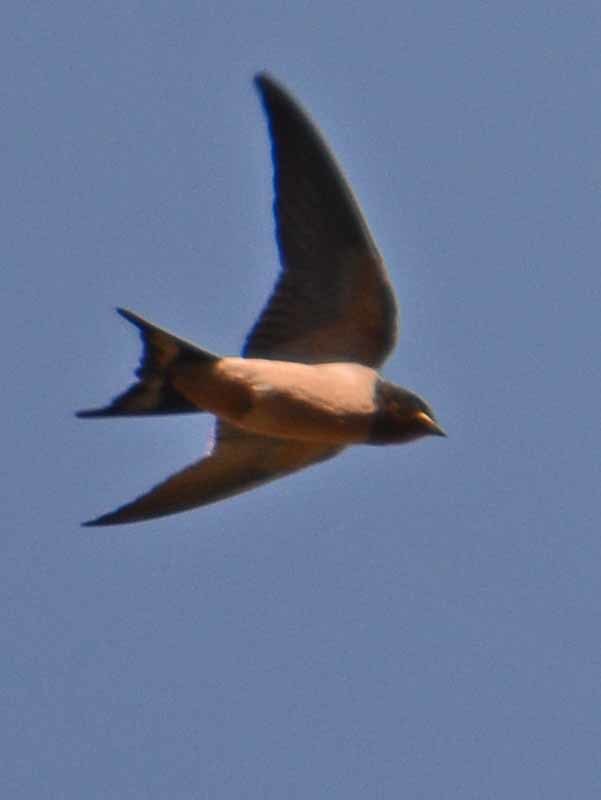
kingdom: Animalia
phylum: Chordata
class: Aves
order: Passeriformes
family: Hirundinidae
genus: Hirundo
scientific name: Hirundo rustica
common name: Barn swallow
